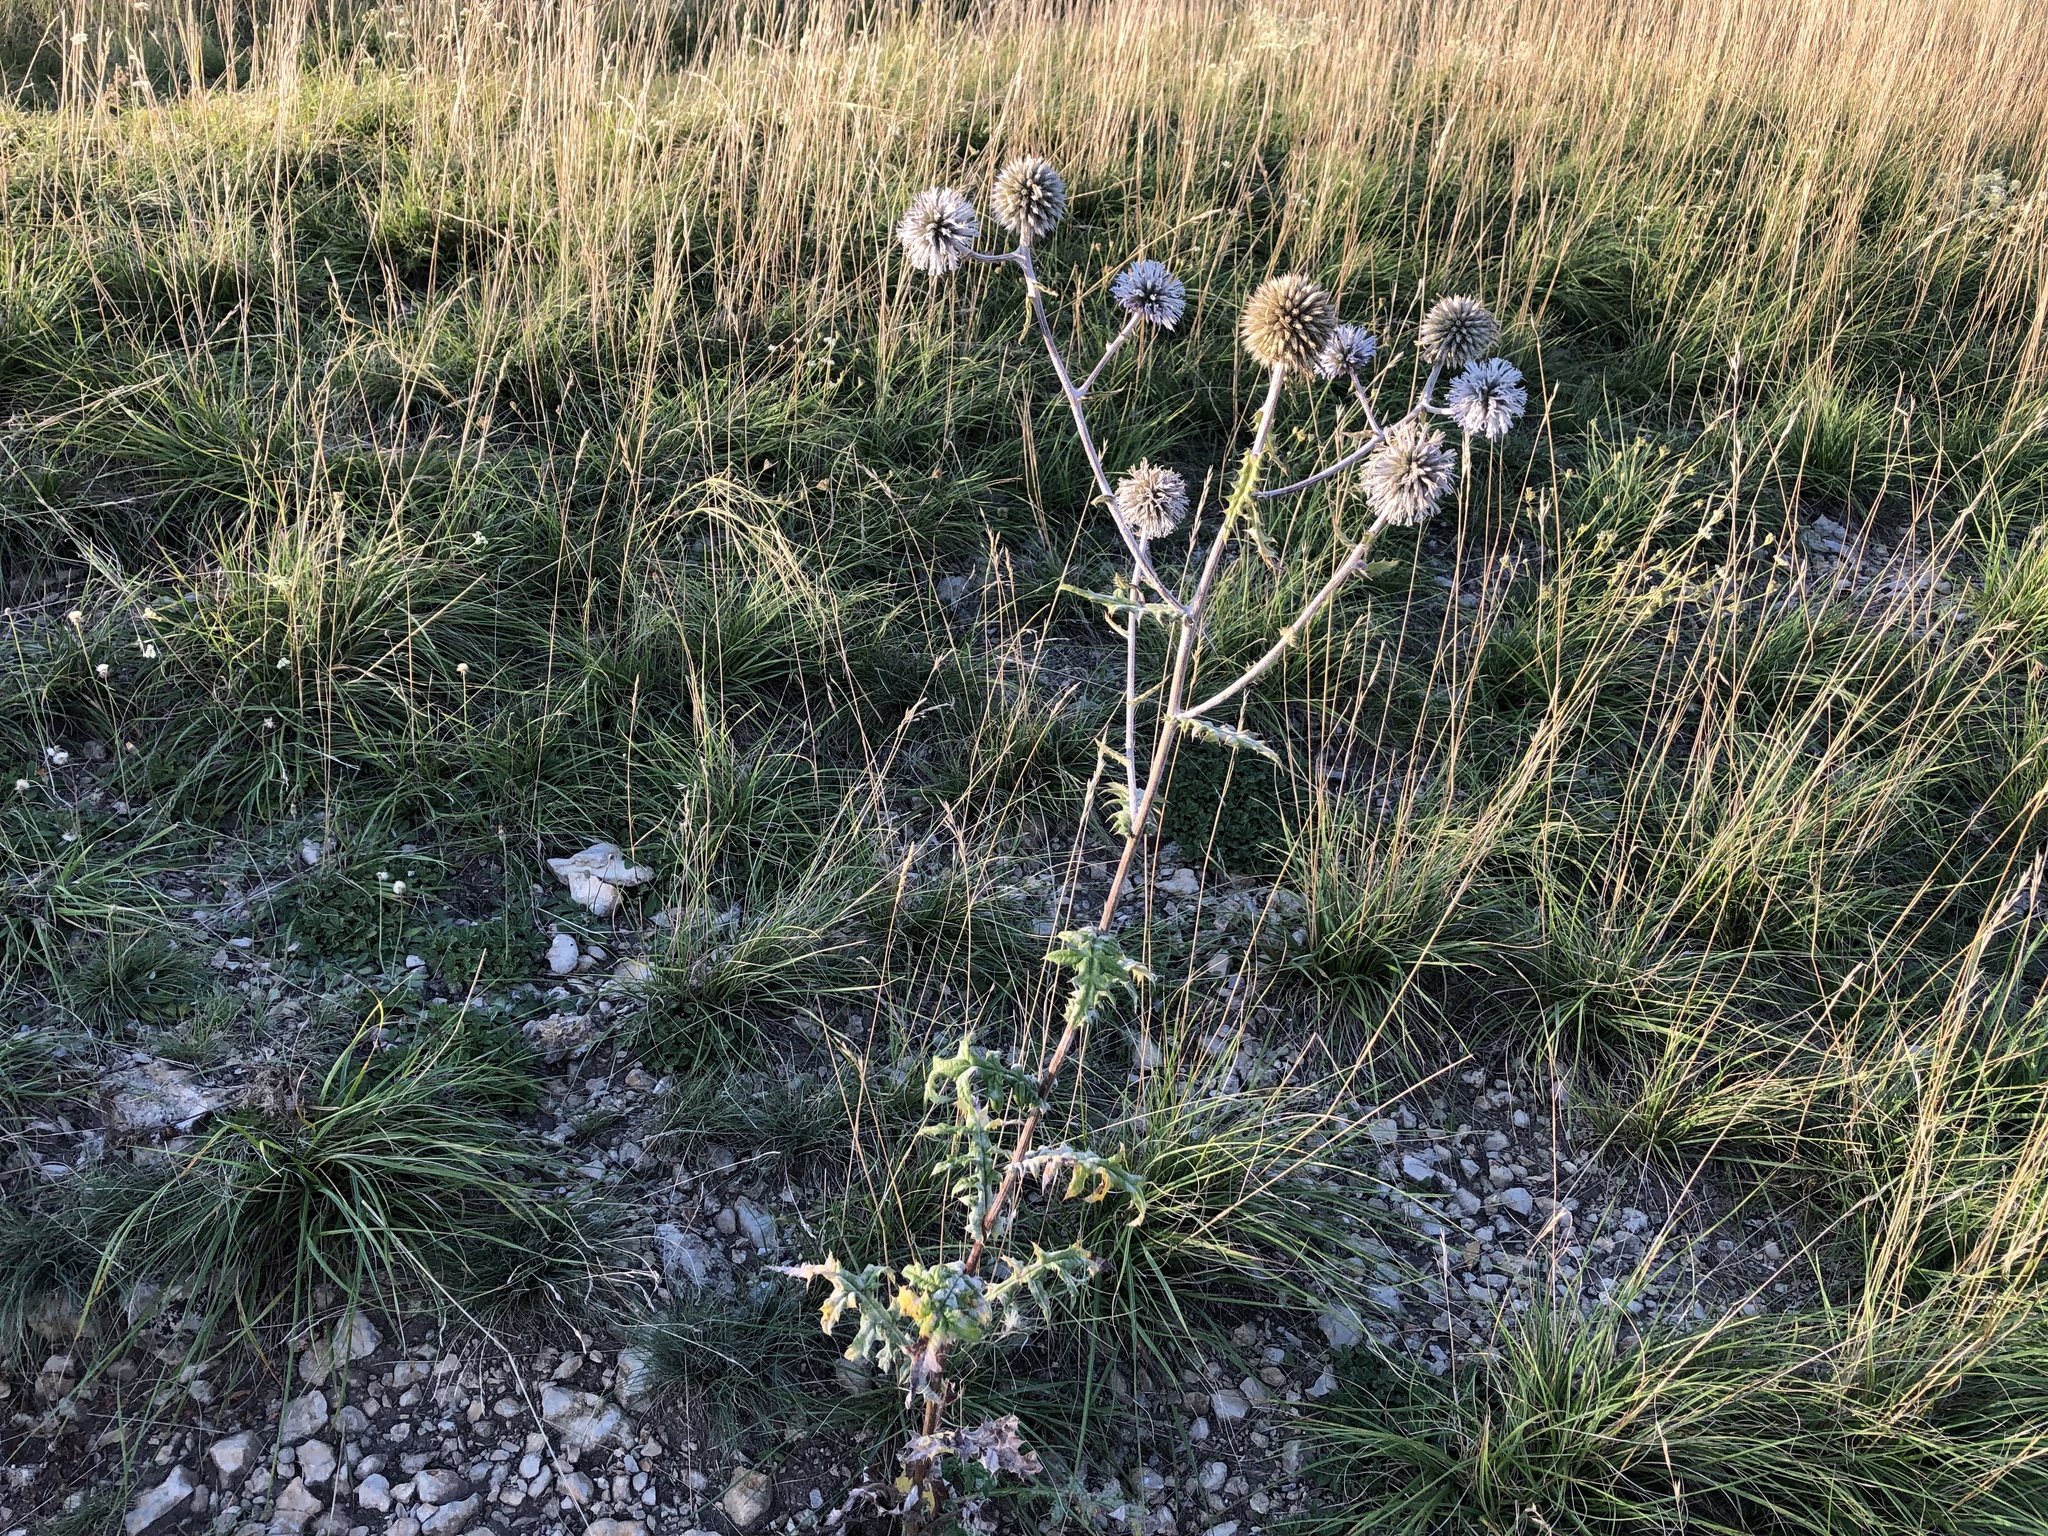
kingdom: Plantae
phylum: Tracheophyta
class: Magnoliopsida
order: Asterales
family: Asteraceae
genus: Echinops
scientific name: Echinops sphaerocephalus
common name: Glandular globe-thistle
